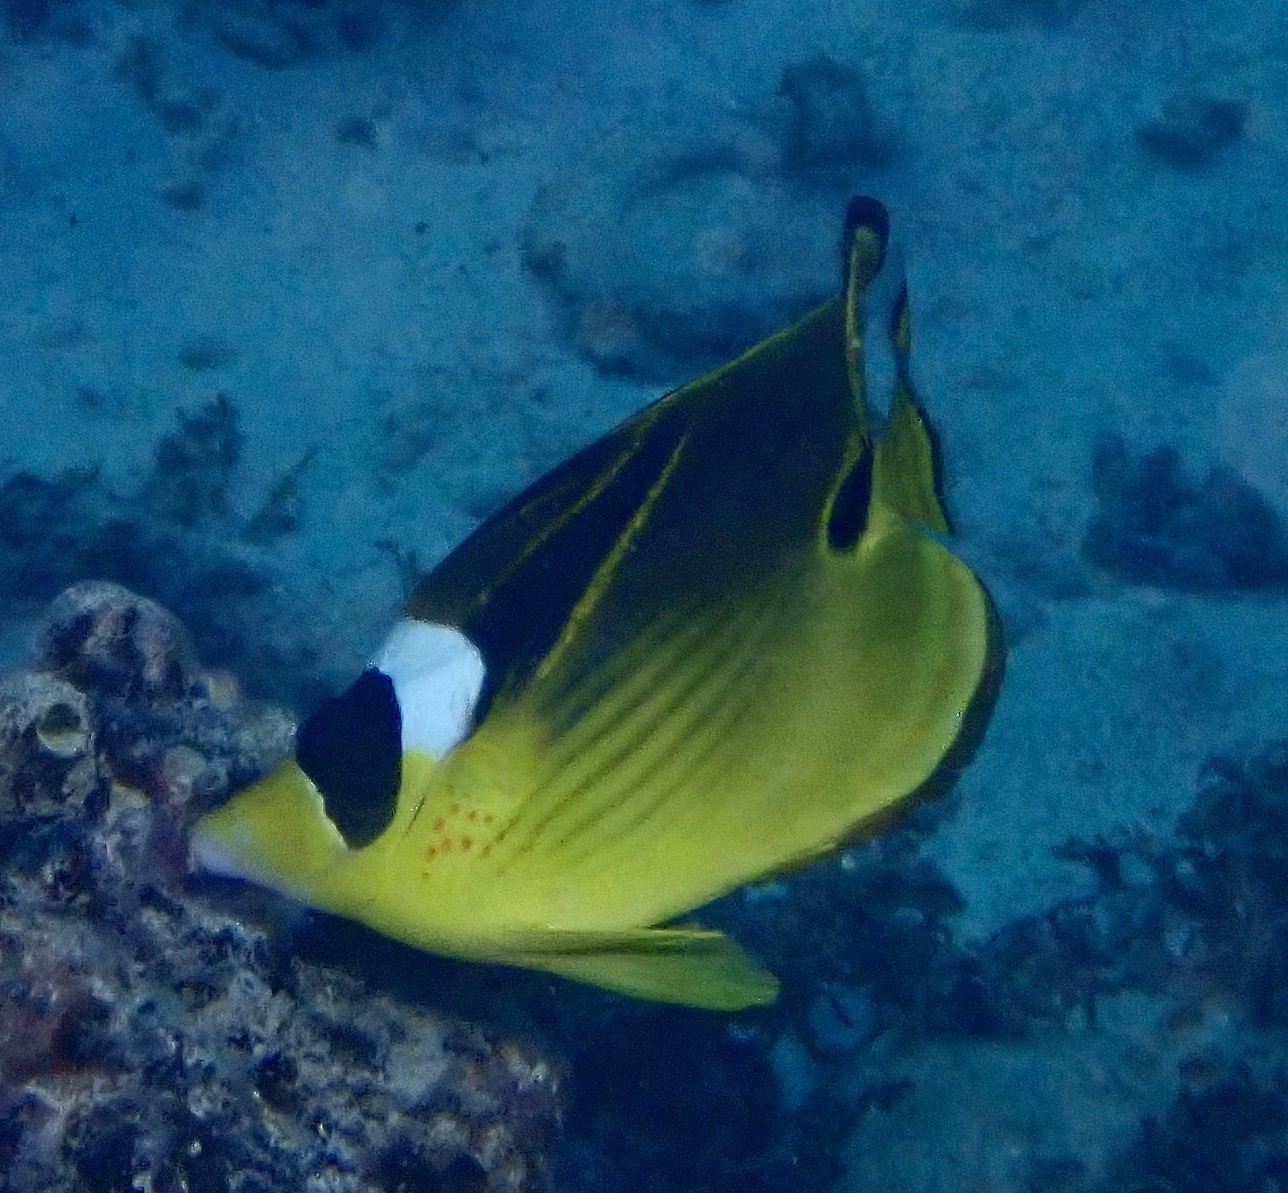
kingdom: Animalia
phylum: Chordata
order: Perciformes
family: Chaetodontidae
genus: Chaetodon
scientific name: Chaetodon lunula
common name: Raccoon butterflyfish
